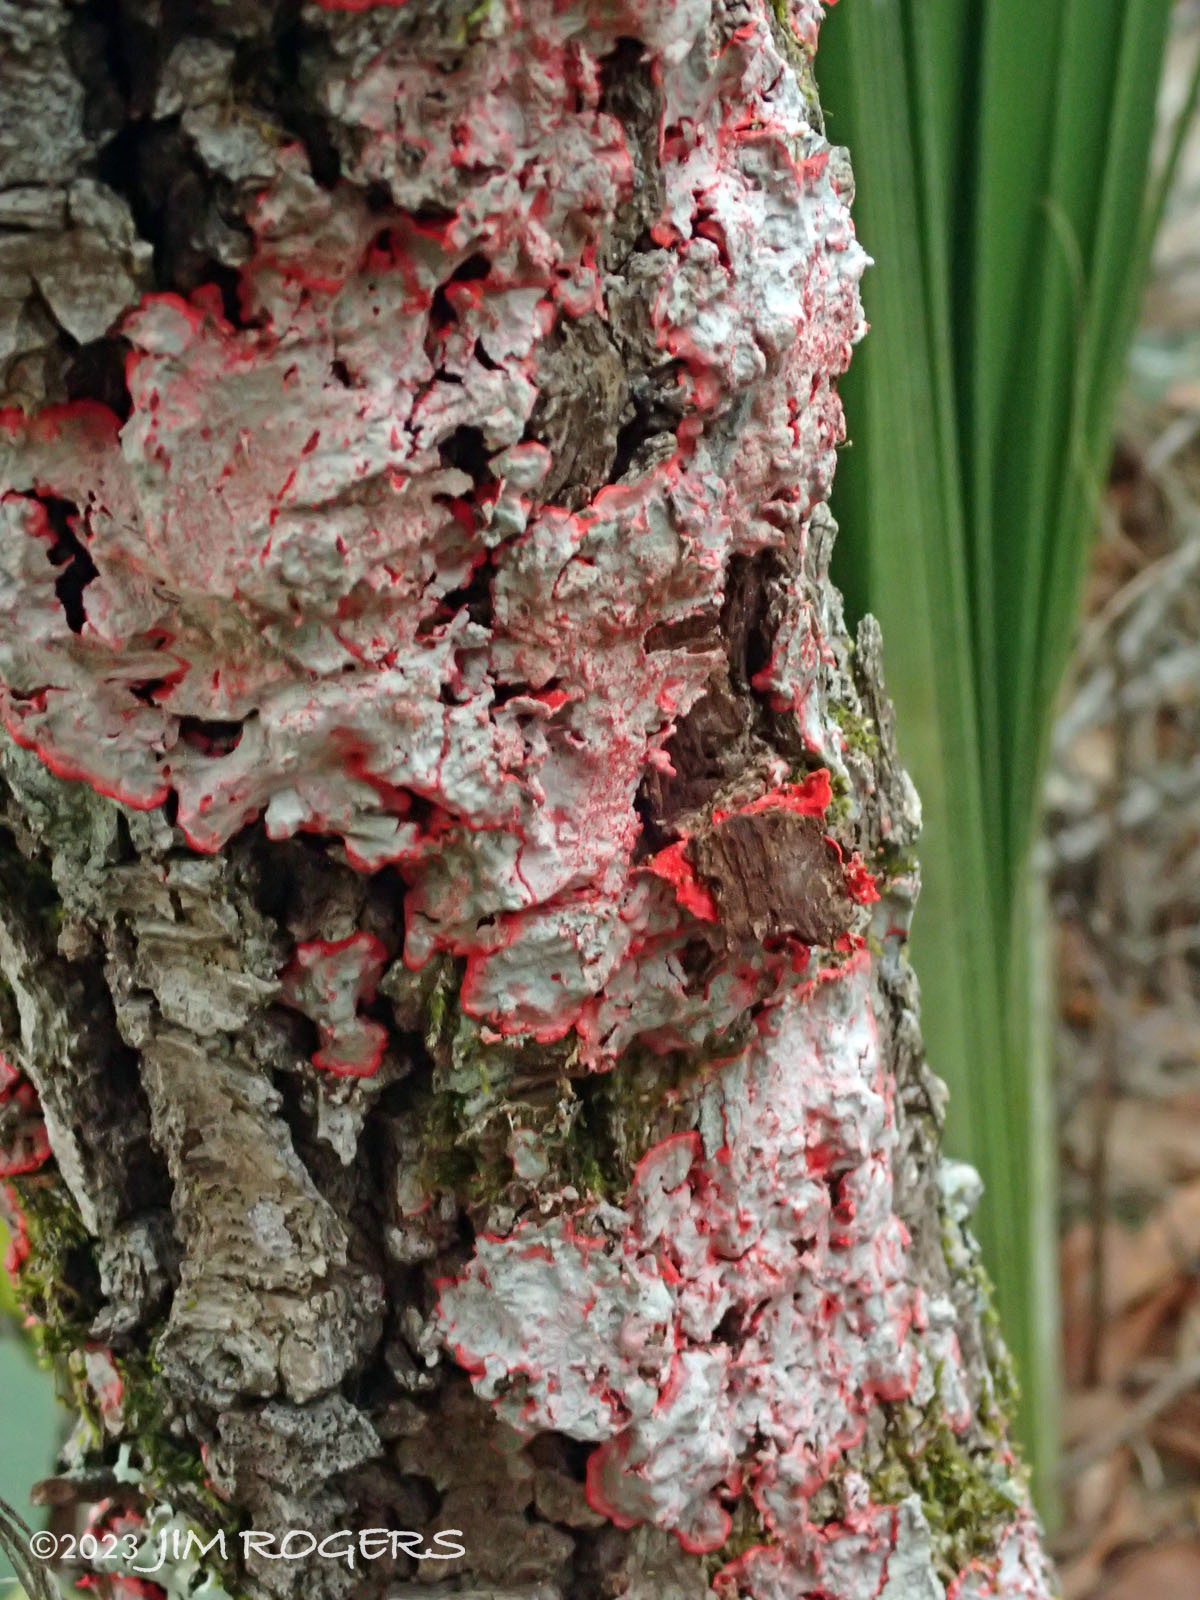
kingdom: Fungi
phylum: Ascomycota
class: Arthoniomycetes
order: Arthoniales
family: Arthoniaceae
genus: Herpothallon
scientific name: Herpothallon rubrocinctum
